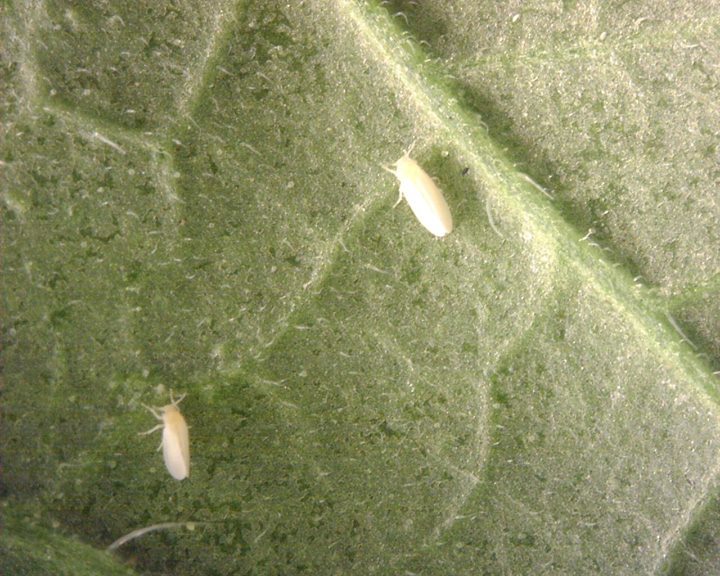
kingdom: Animalia
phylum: Arthropoda
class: Insecta
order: Hemiptera
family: Aleyrodidae
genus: Bemisia
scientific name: Bemisia tabaci
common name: Sweetpotato whitefly
